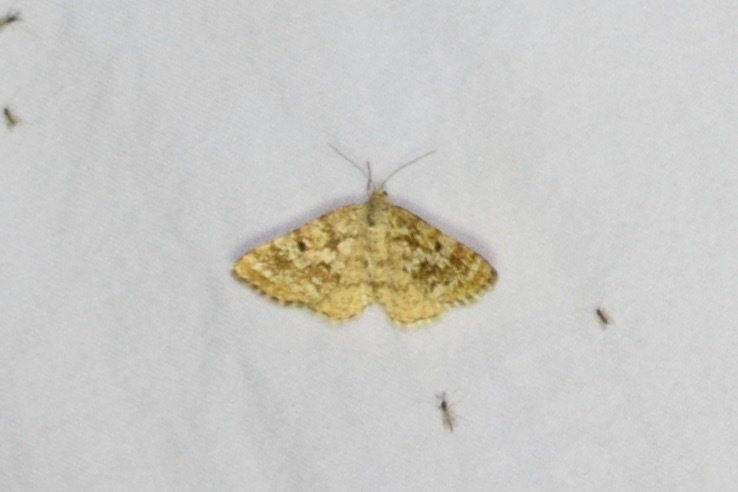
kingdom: Animalia
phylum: Arthropoda
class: Insecta
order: Lepidoptera
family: Geometridae
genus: Eufidonia
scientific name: Eufidonia notataria
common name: Powder moth
